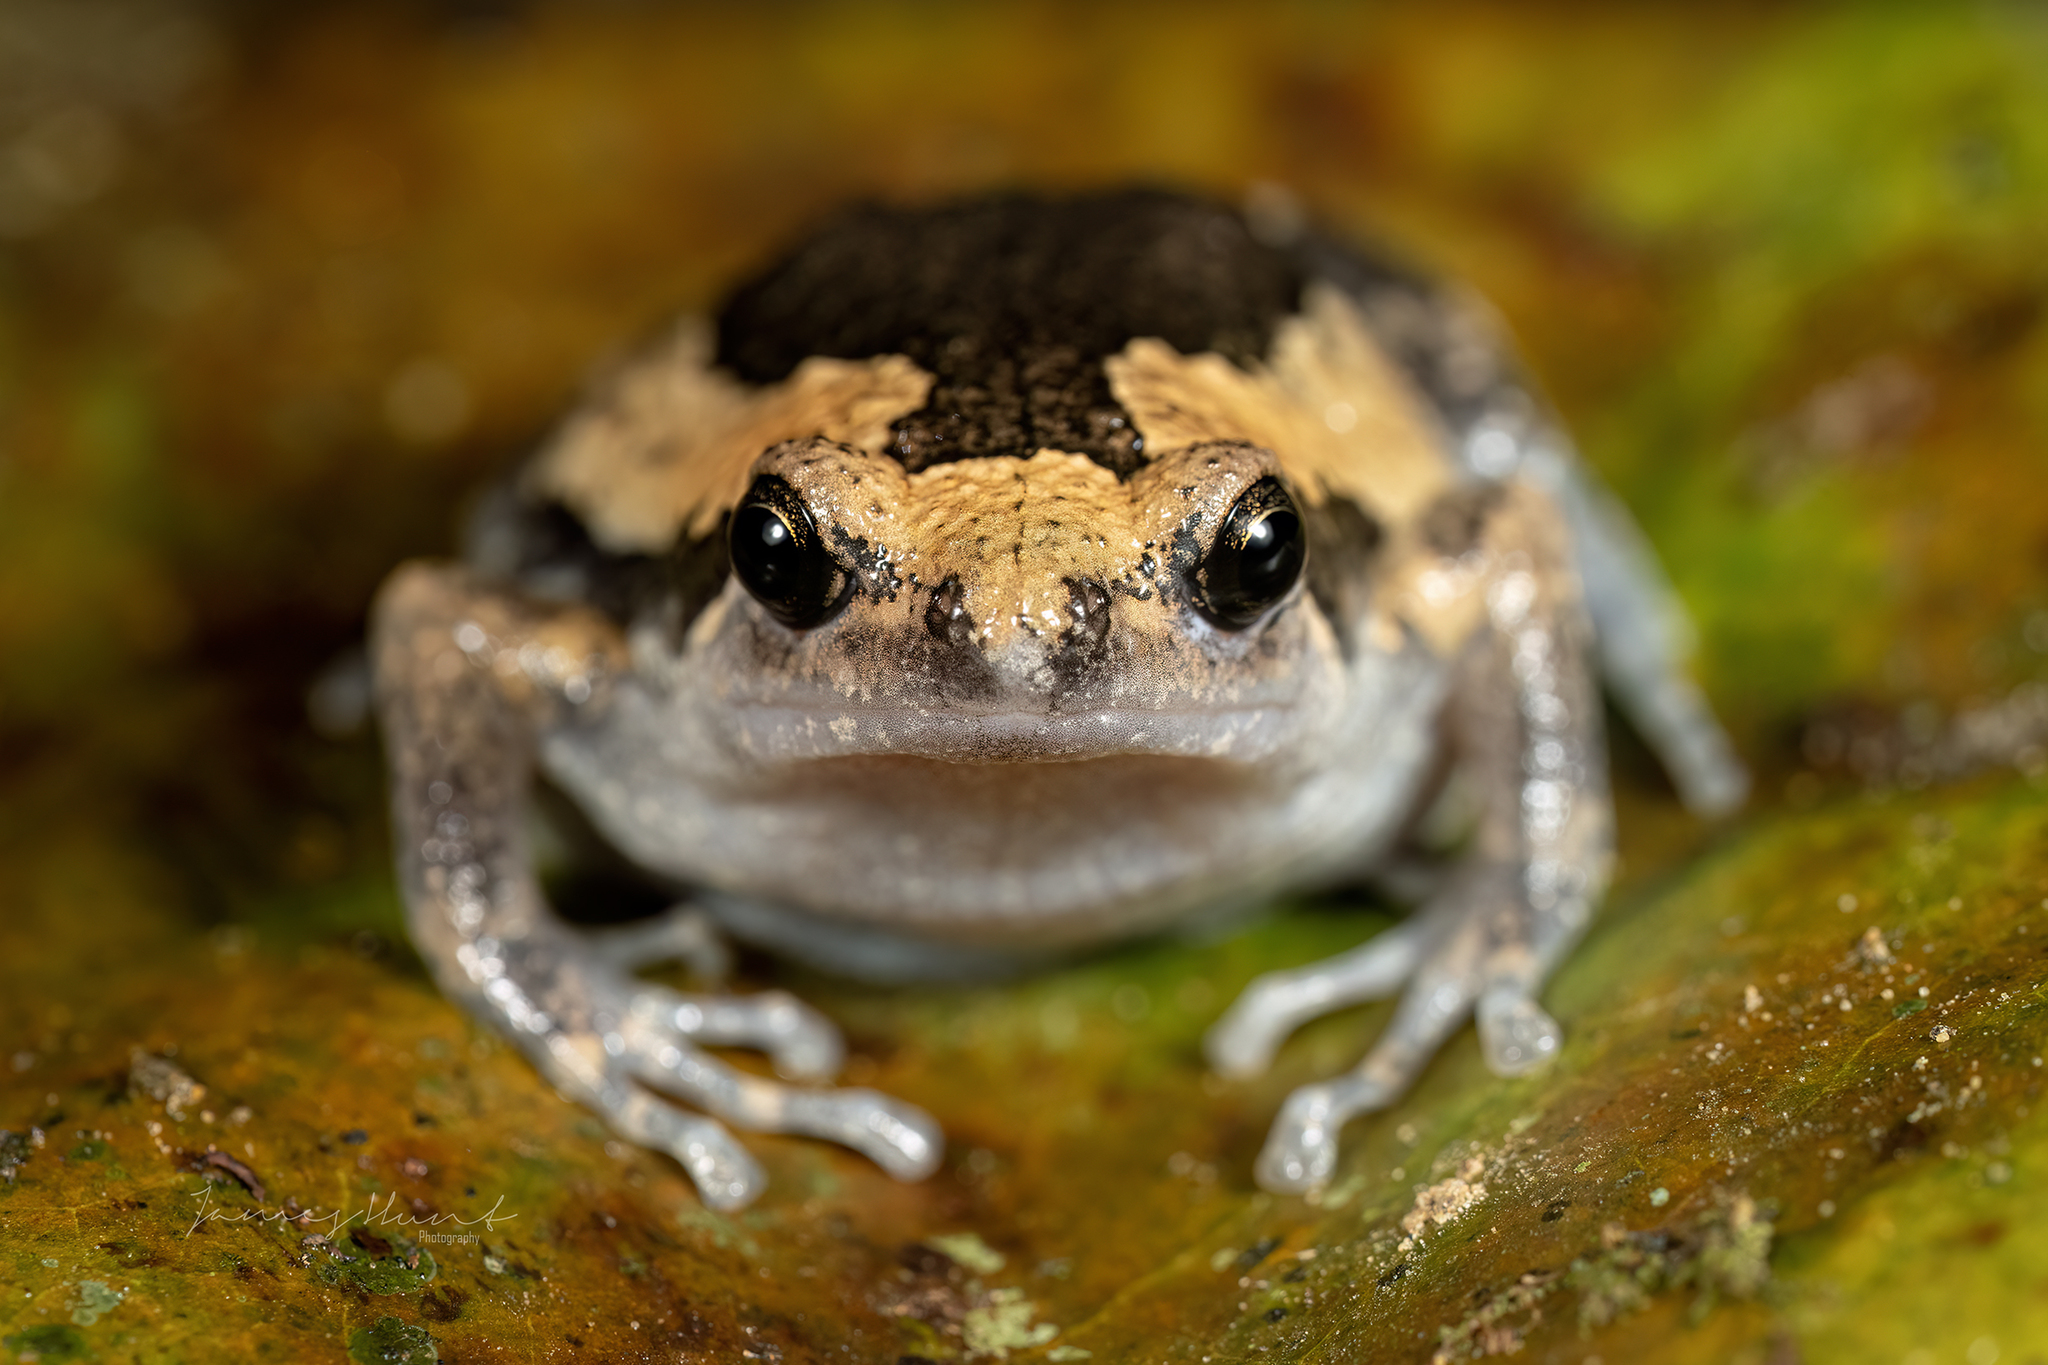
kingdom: Animalia
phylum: Chordata
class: Amphibia
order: Anura
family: Microhylidae
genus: Kaloula
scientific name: Kaloula pulchra
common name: Common,banded bullfrog
